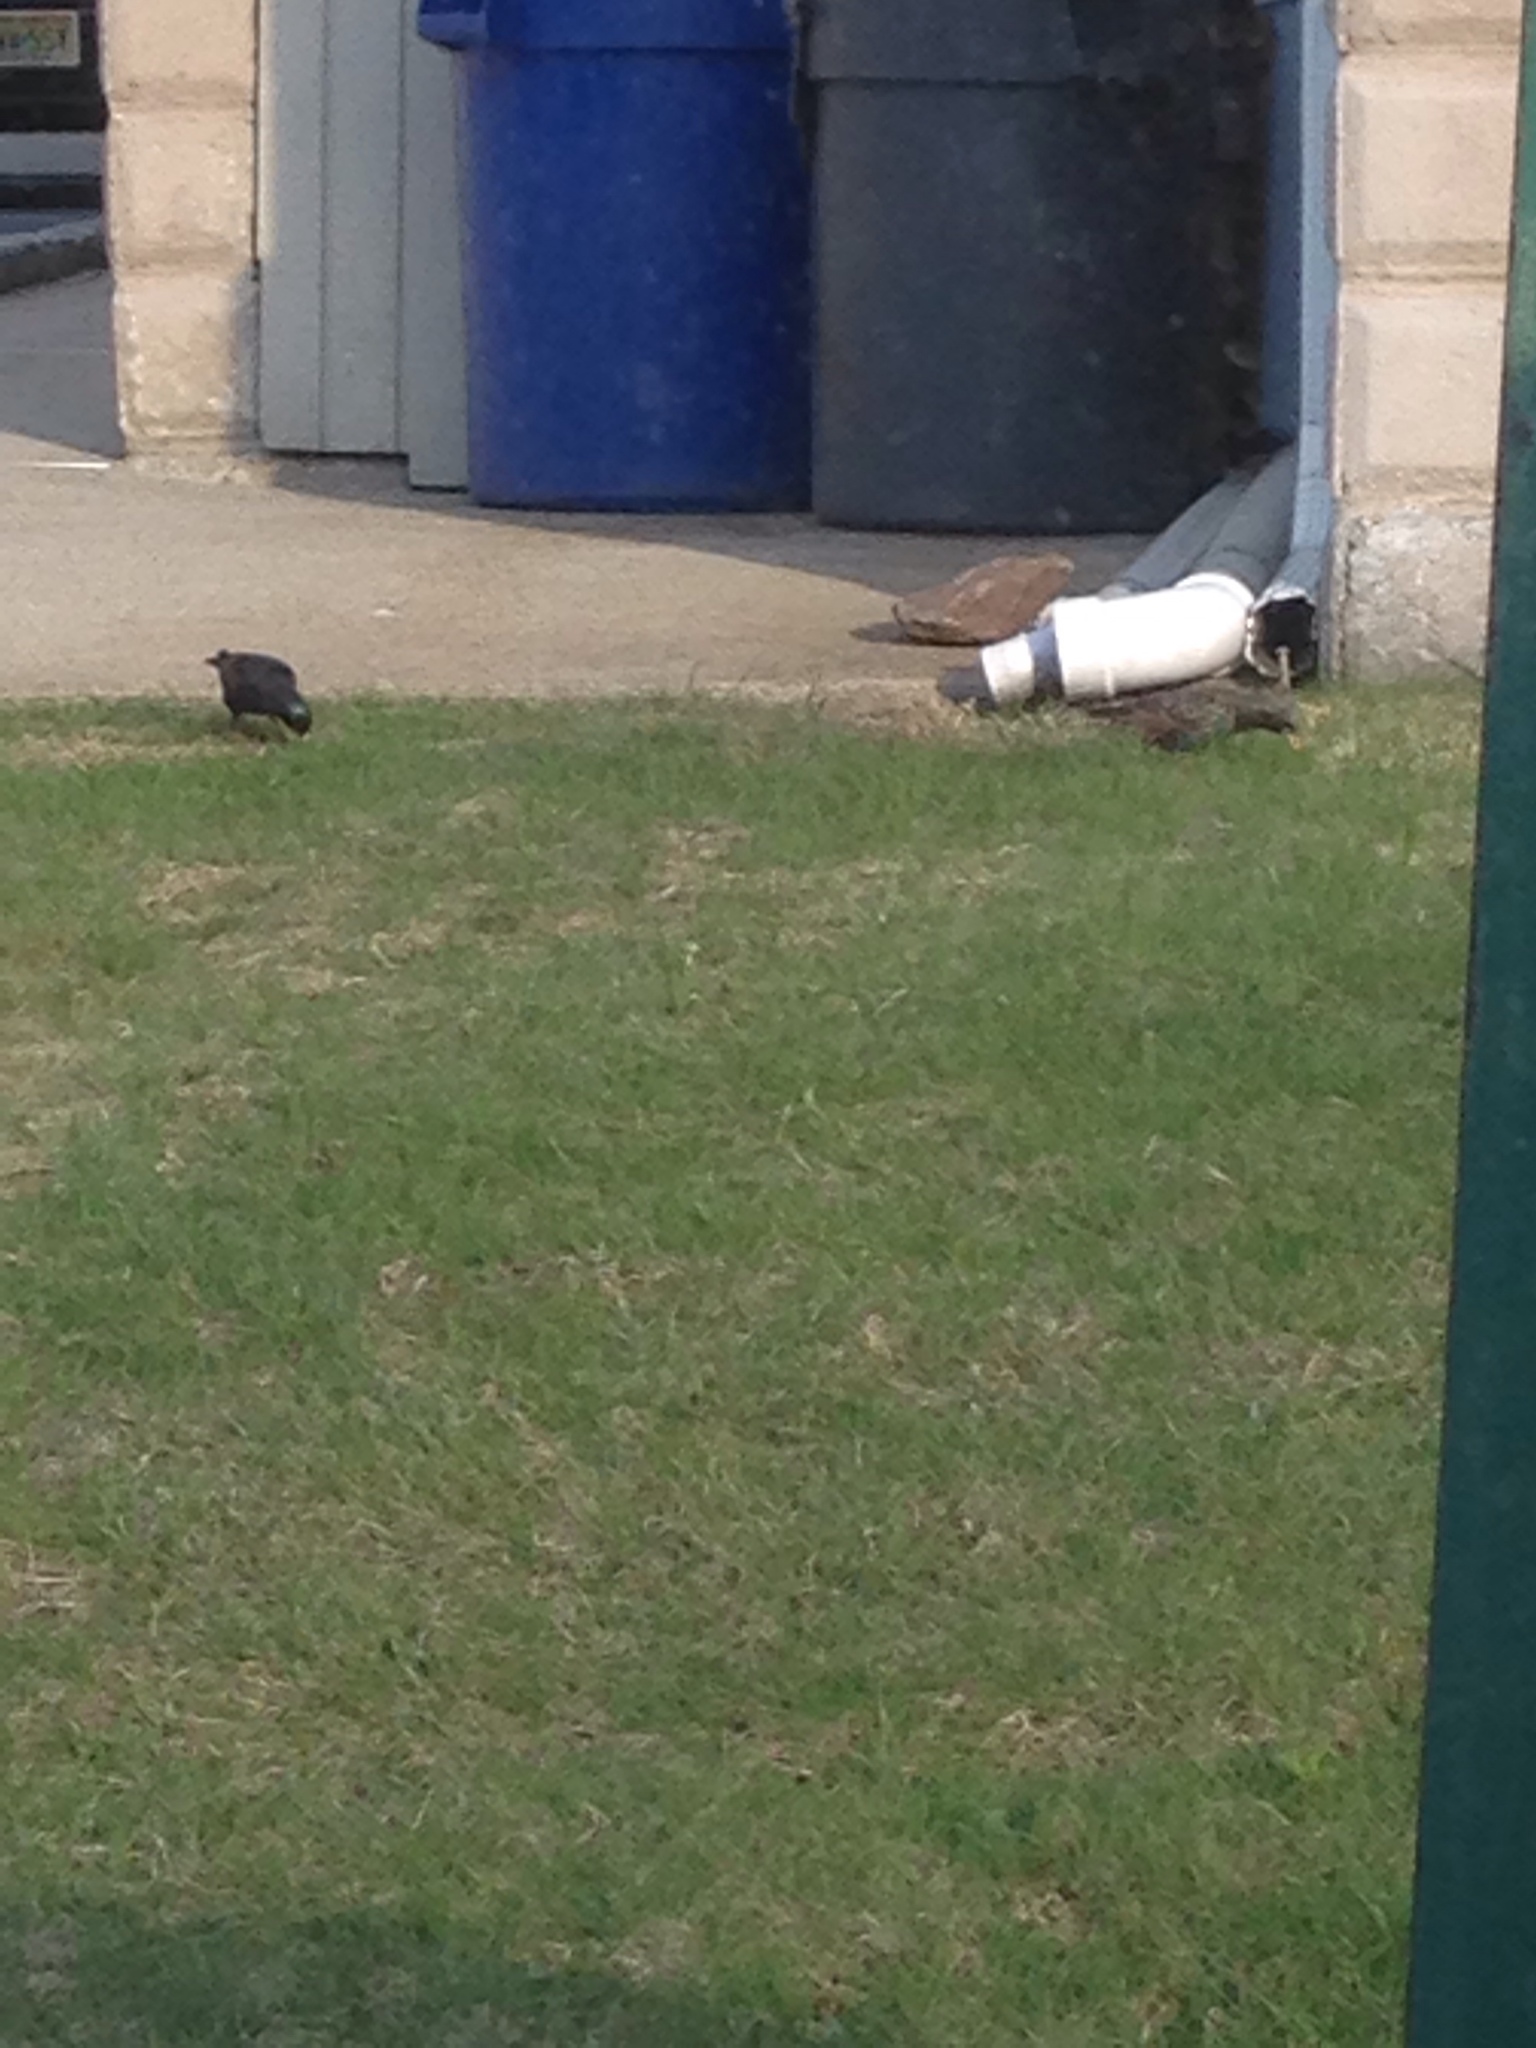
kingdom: Animalia
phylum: Chordata
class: Aves
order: Passeriformes
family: Sturnidae
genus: Sturnus
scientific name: Sturnus vulgaris
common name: Common starling
